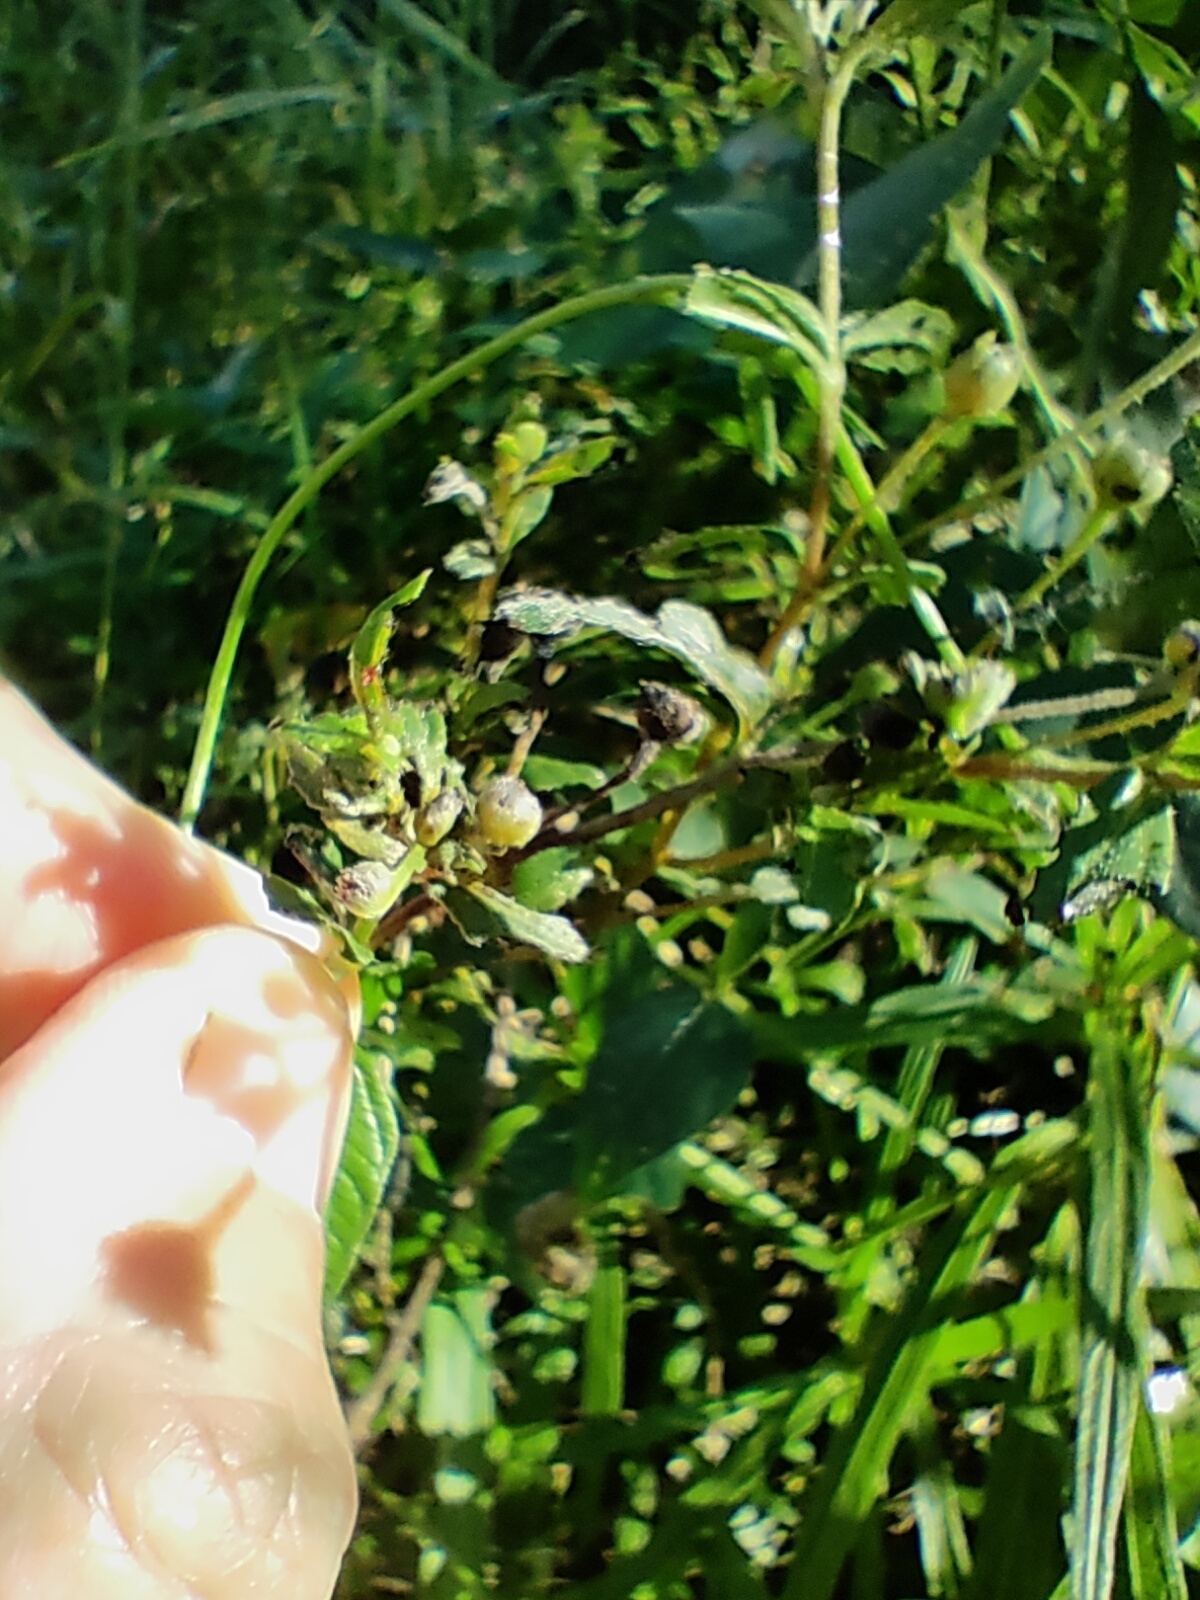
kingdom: Plantae
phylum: Tracheophyta
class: Magnoliopsida
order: Asterales
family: Asteraceae
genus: Eclipta
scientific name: Eclipta prostrata
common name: False daisy
